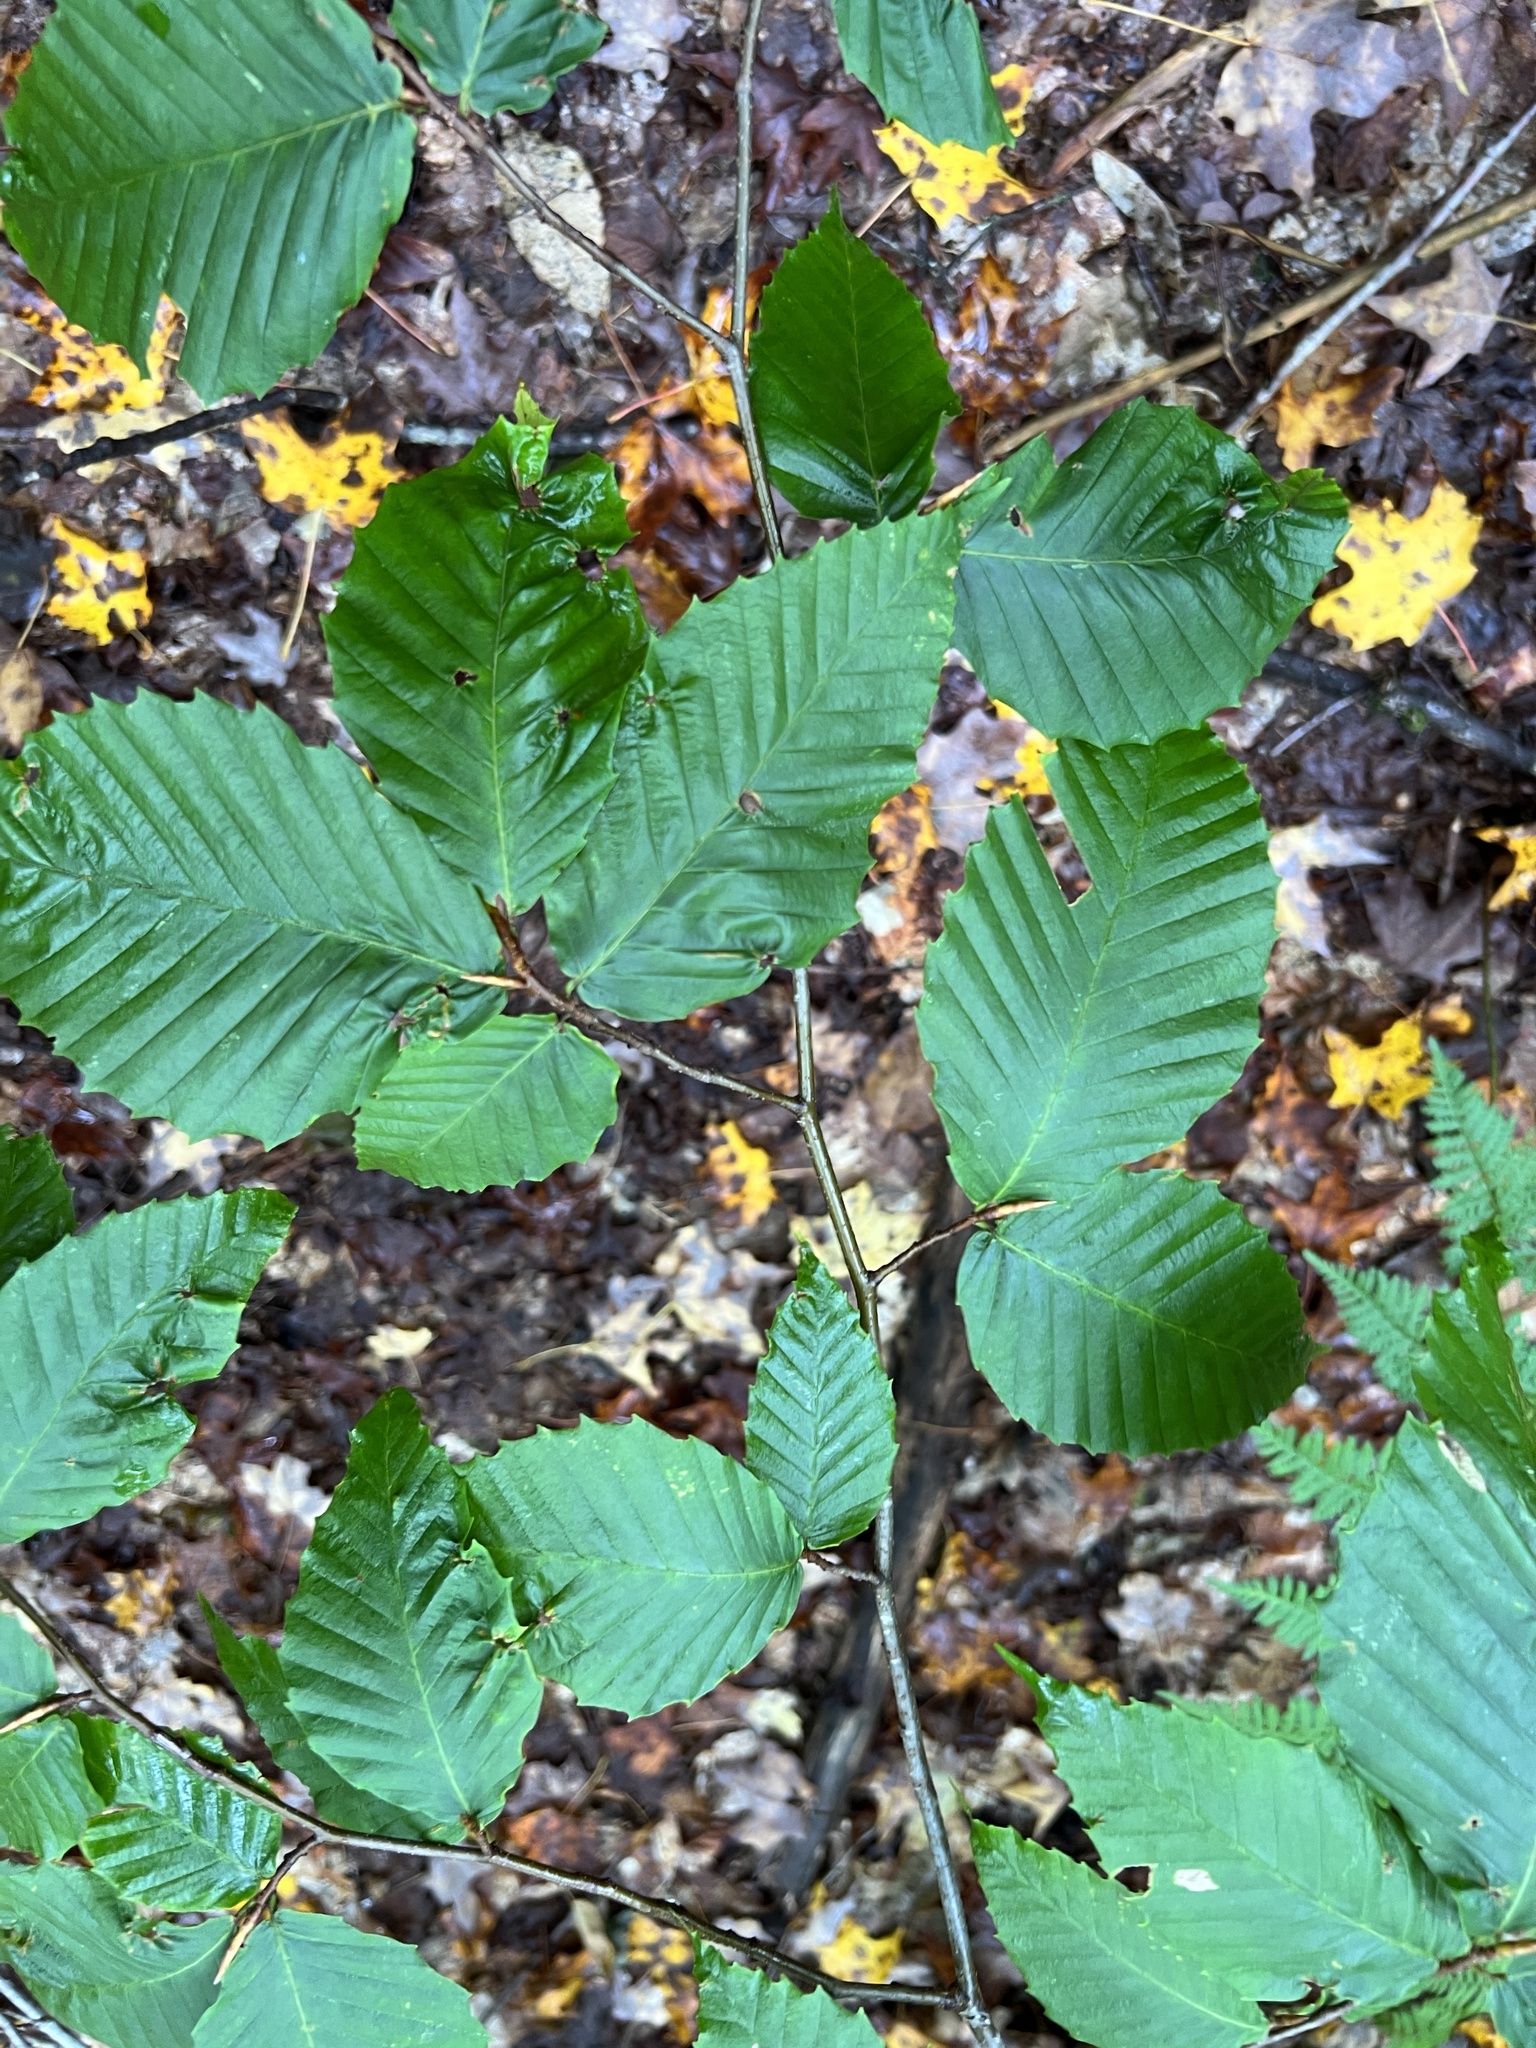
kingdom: Plantae
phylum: Tracheophyta
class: Magnoliopsida
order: Fagales
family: Fagaceae
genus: Fagus
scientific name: Fagus grandifolia
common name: American beech
